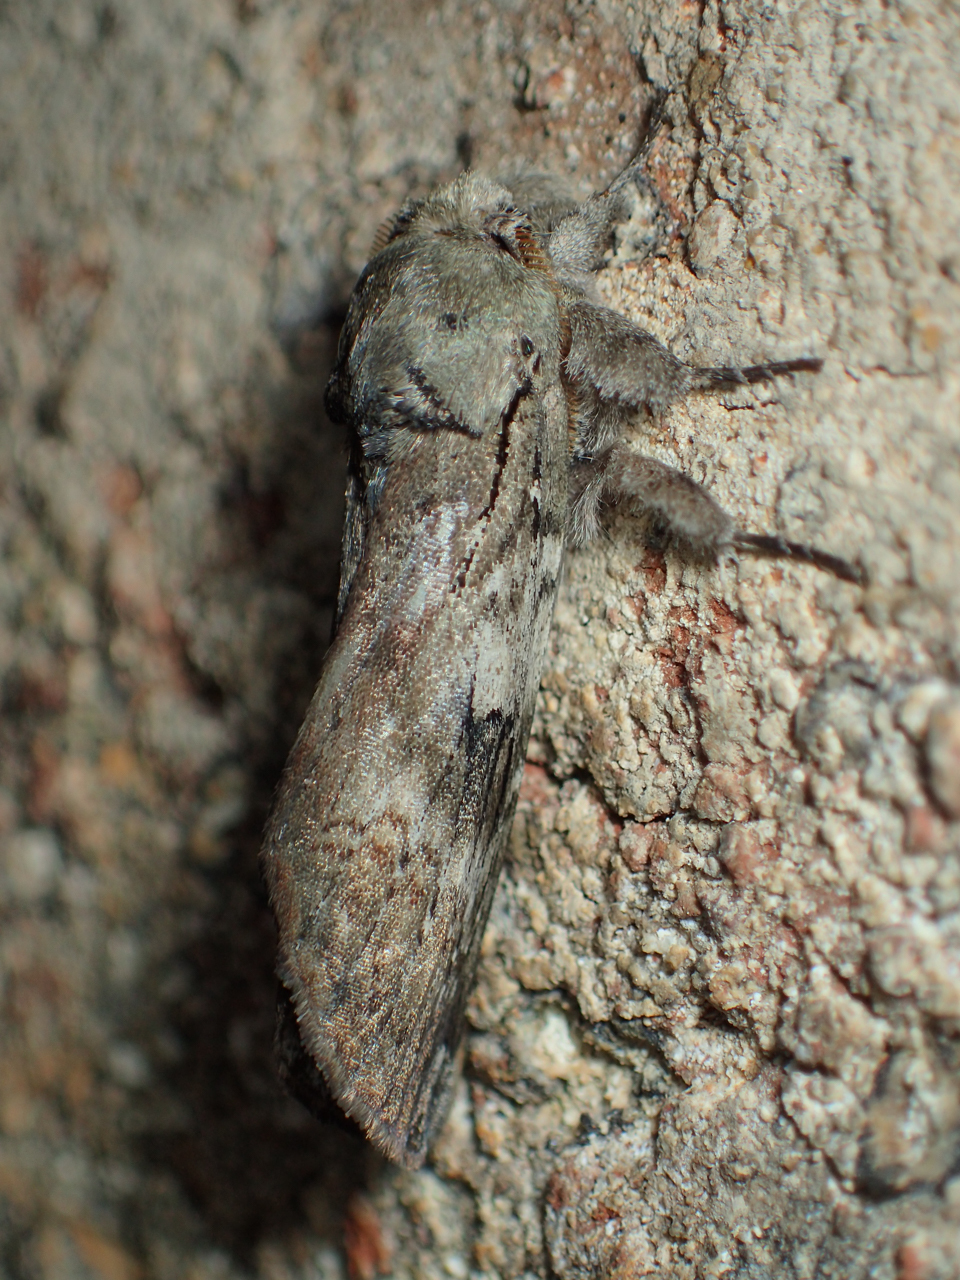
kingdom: Animalia
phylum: Arthropoda
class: Insecta
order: Lepidoptera
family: Notodontidae
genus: Schizura
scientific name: Schizura
